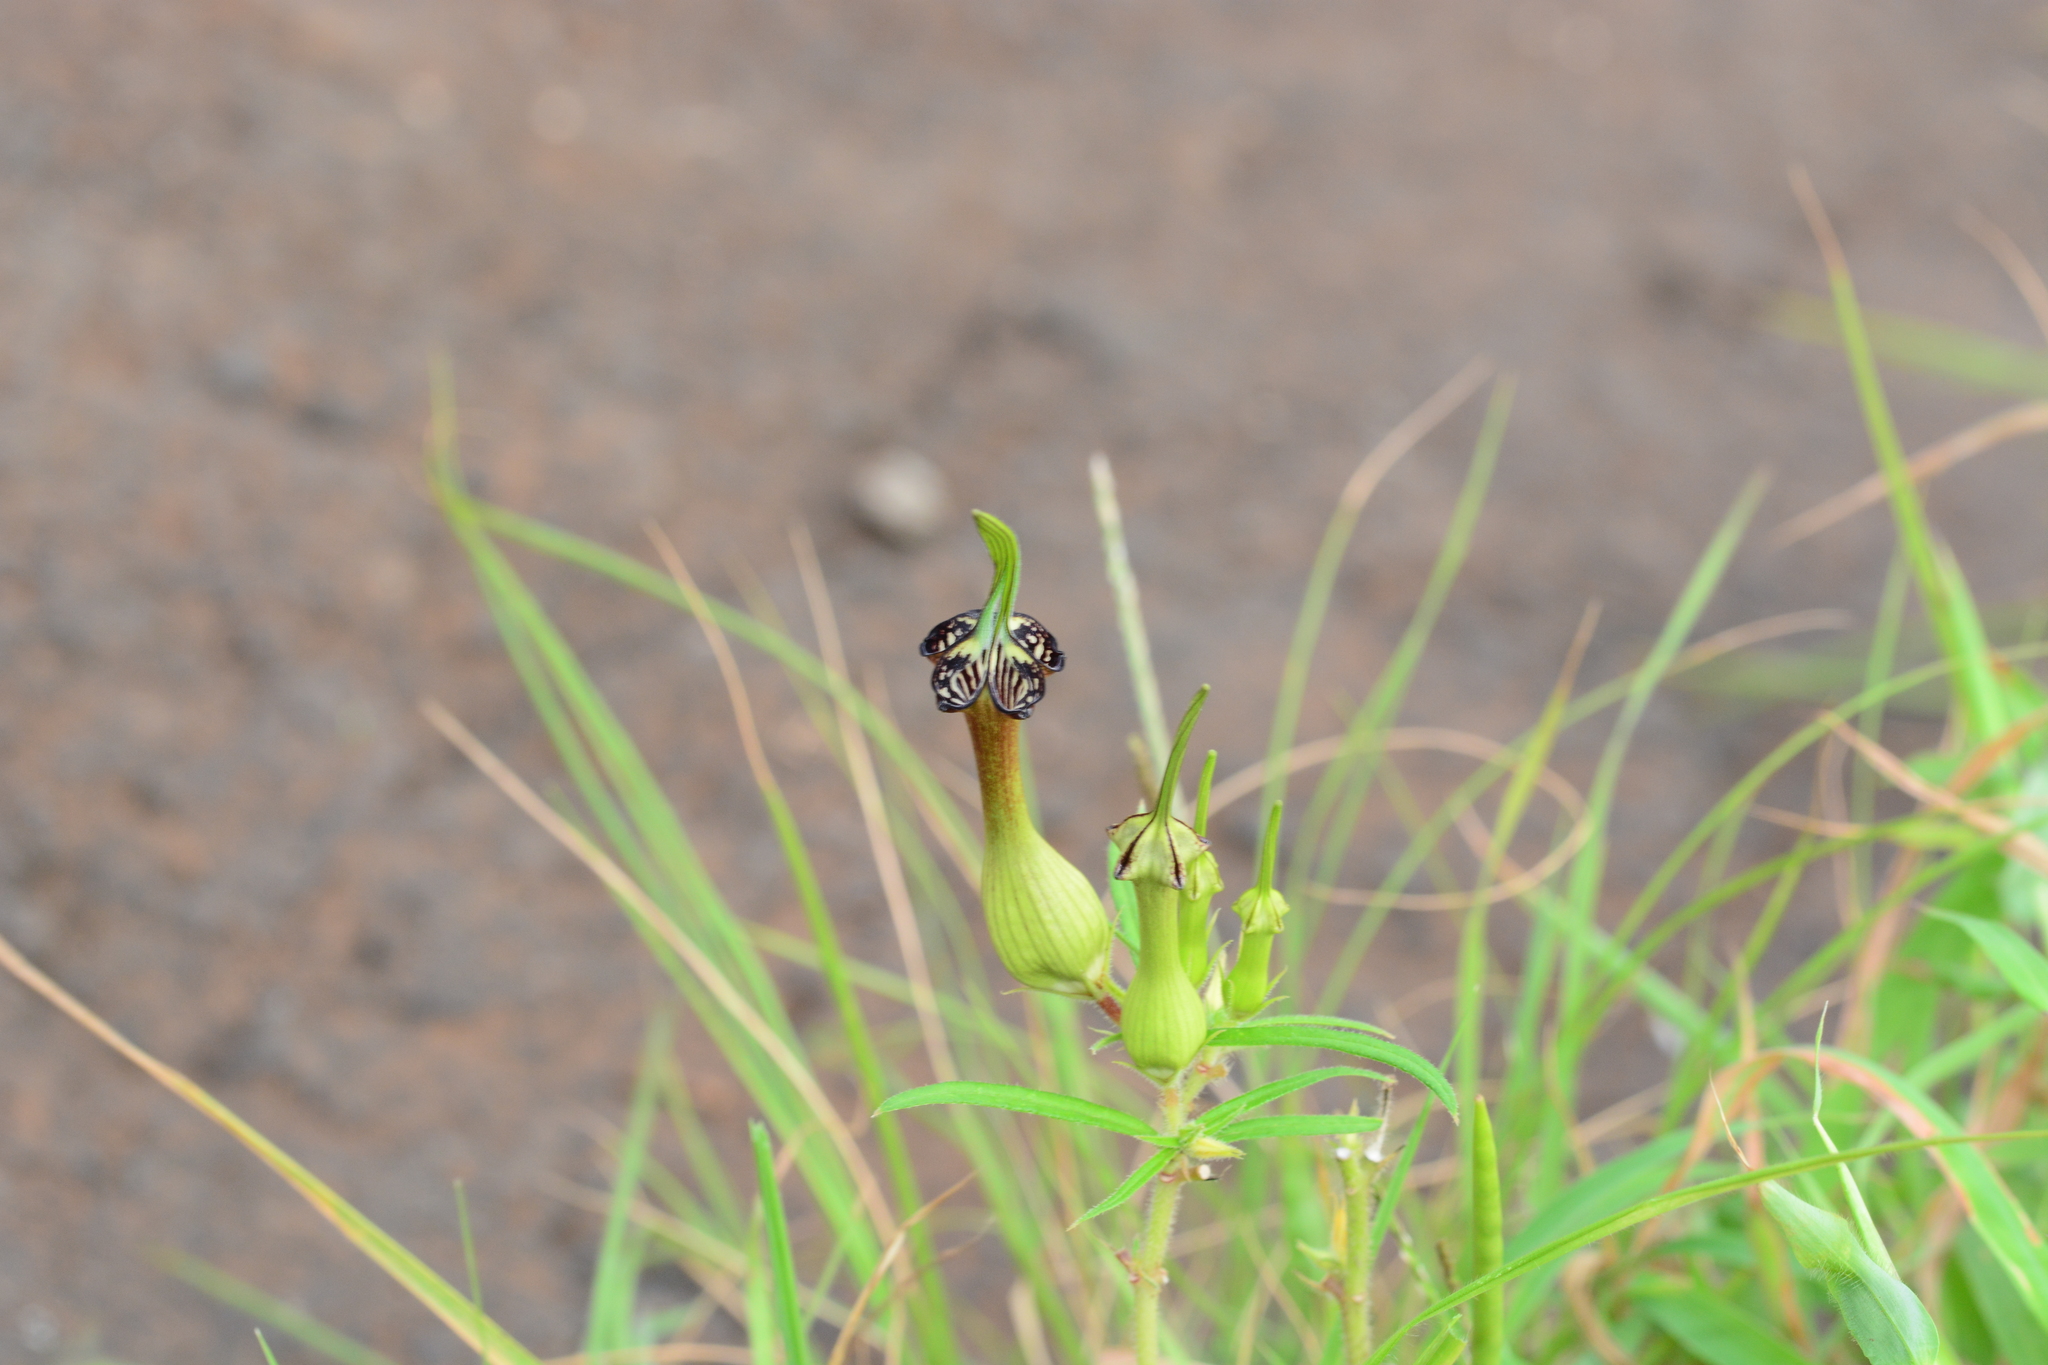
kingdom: Plantae
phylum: Tracheophyta
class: Magnoliopsida
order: Gentianales
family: Apocynaceae
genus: Ceropegia
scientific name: Ceropegia mahabalei
